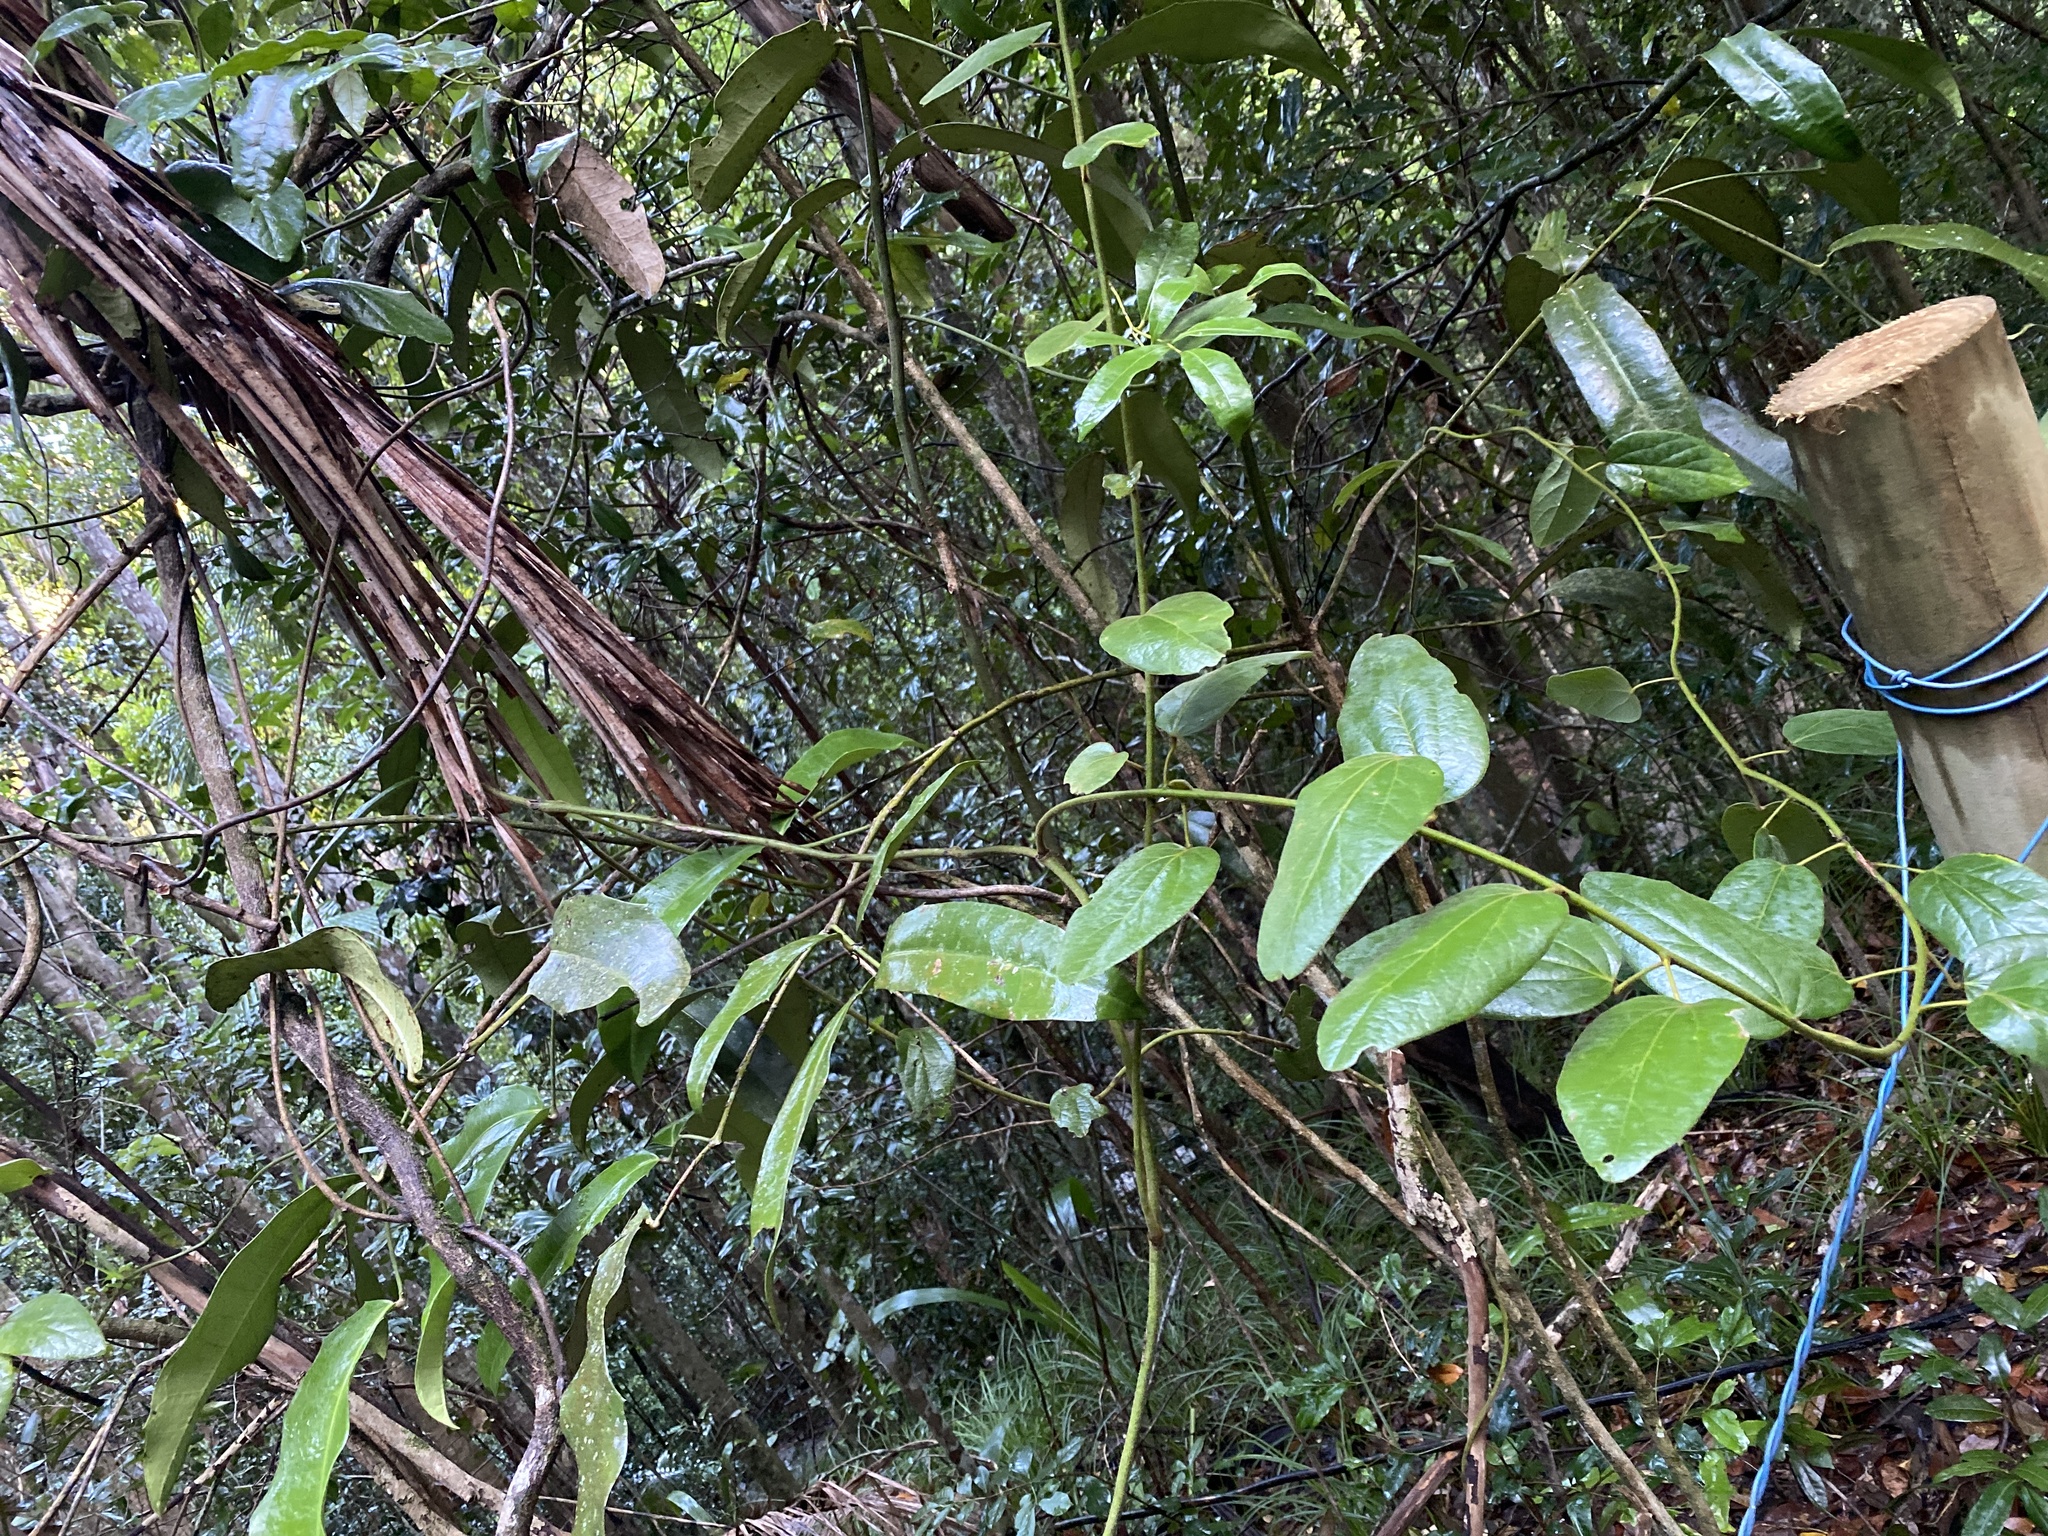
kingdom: Plantae
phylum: Tracheophyta
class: Magnoliopsida
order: Ranunculales
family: Menispermaceae
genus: Hypserpa
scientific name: Hypserpa decumbens
